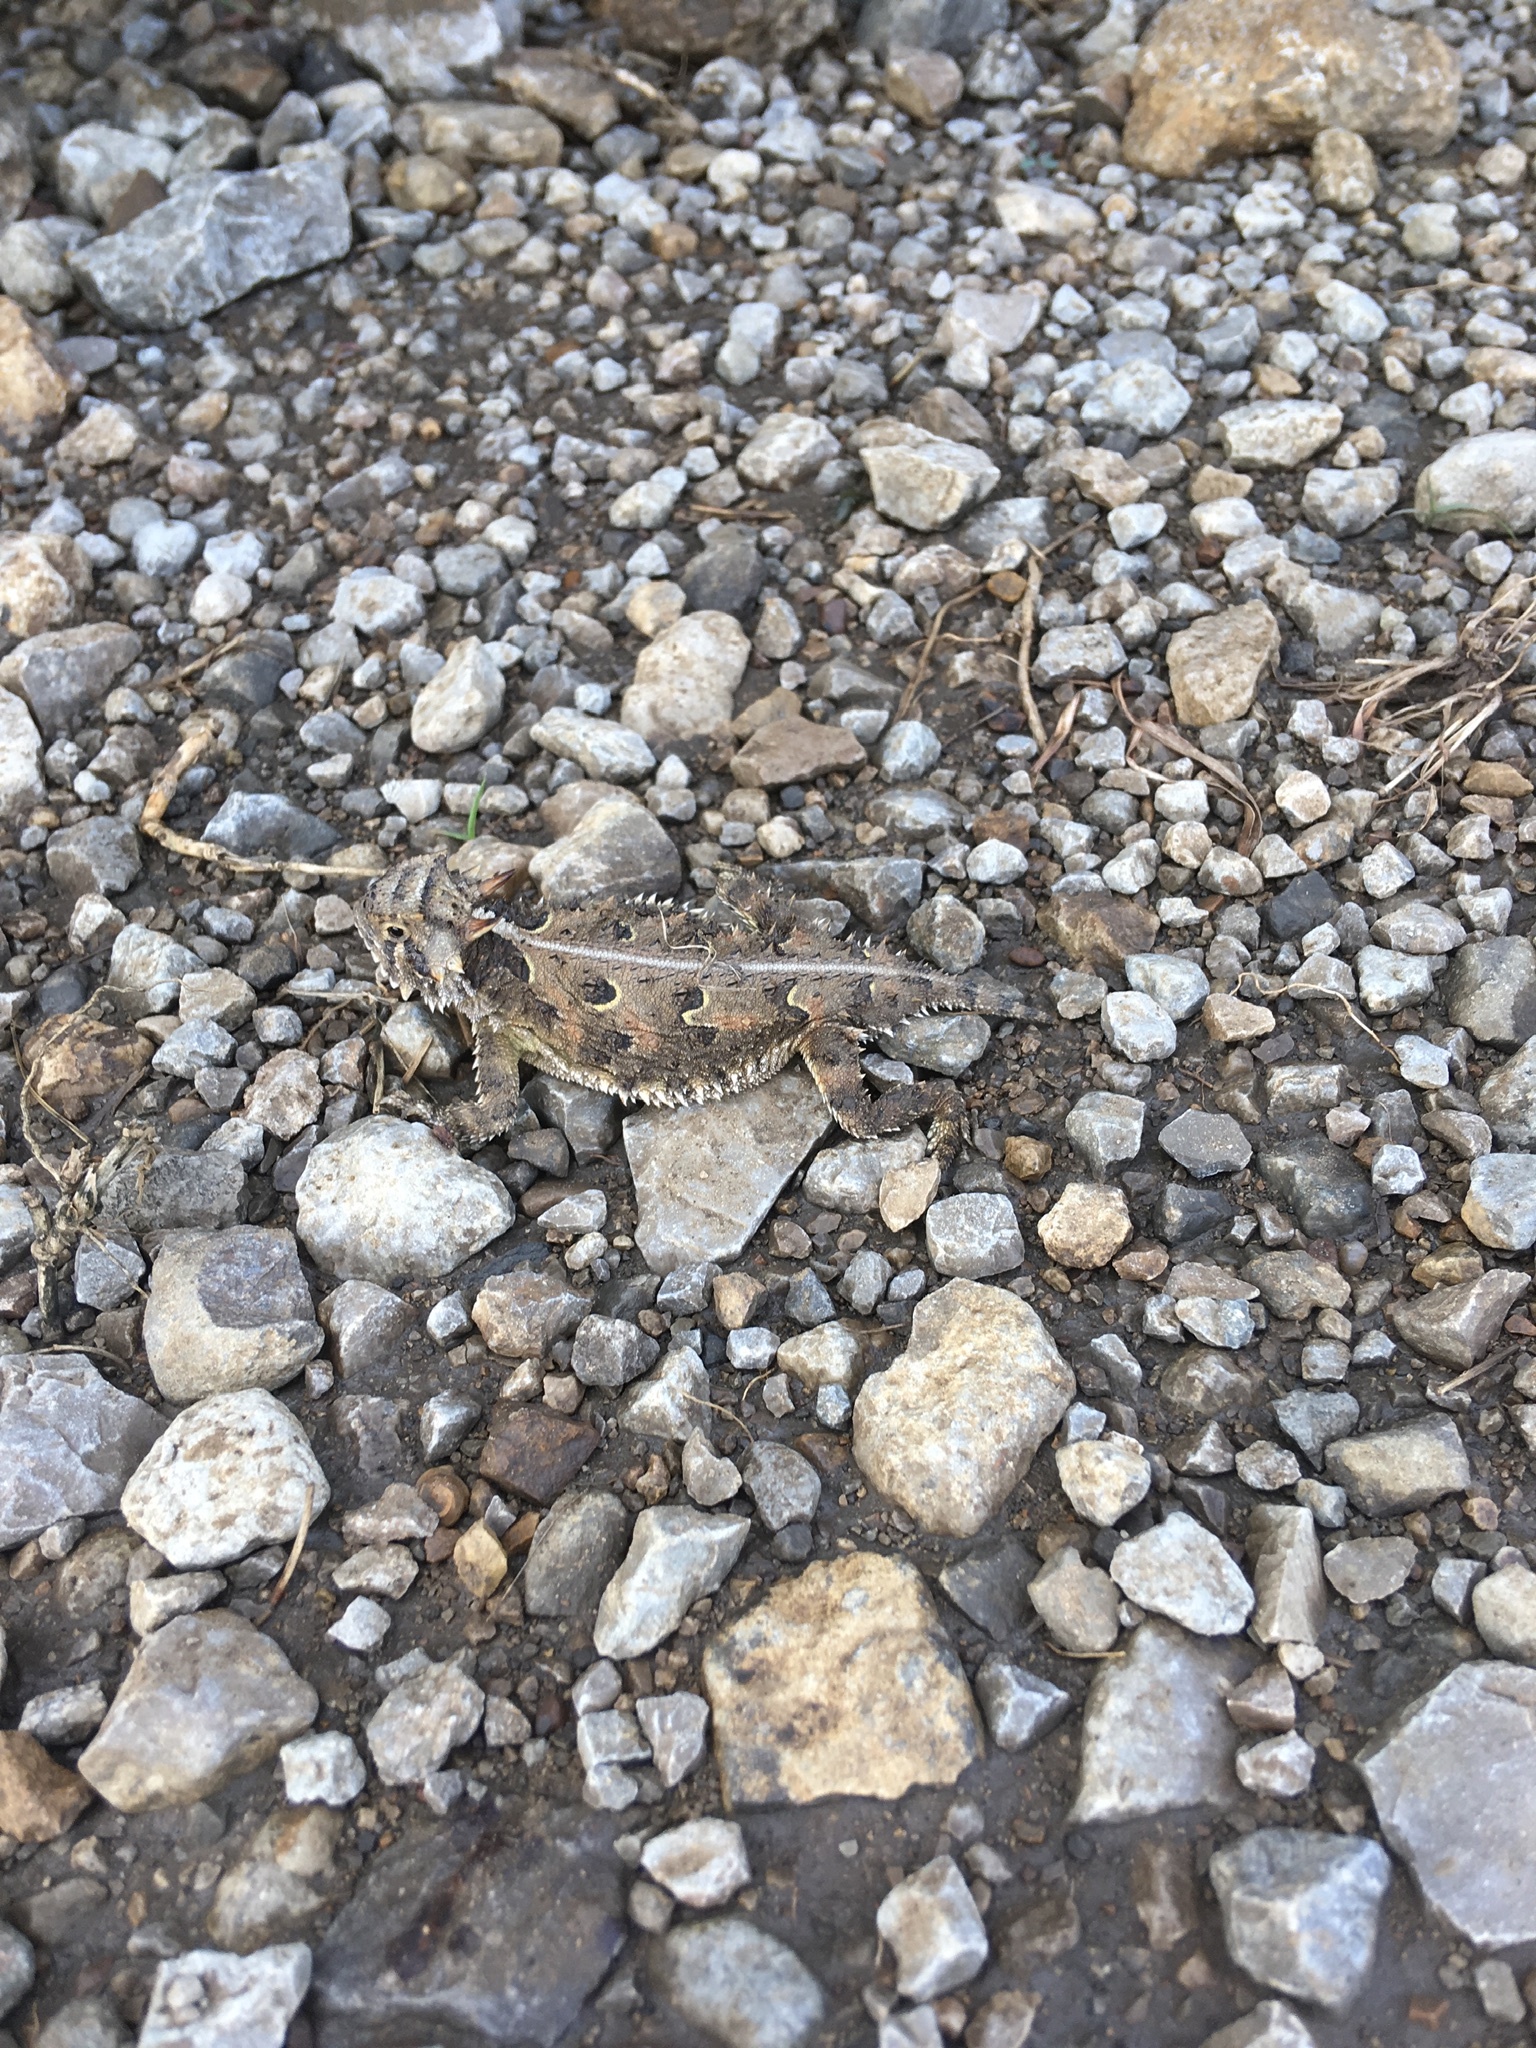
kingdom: Animalia
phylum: Chordata
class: Squamata
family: Phrynosomatidae
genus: Phrynosoma
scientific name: Phrynosoma cornutum
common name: Texas horned lizard
